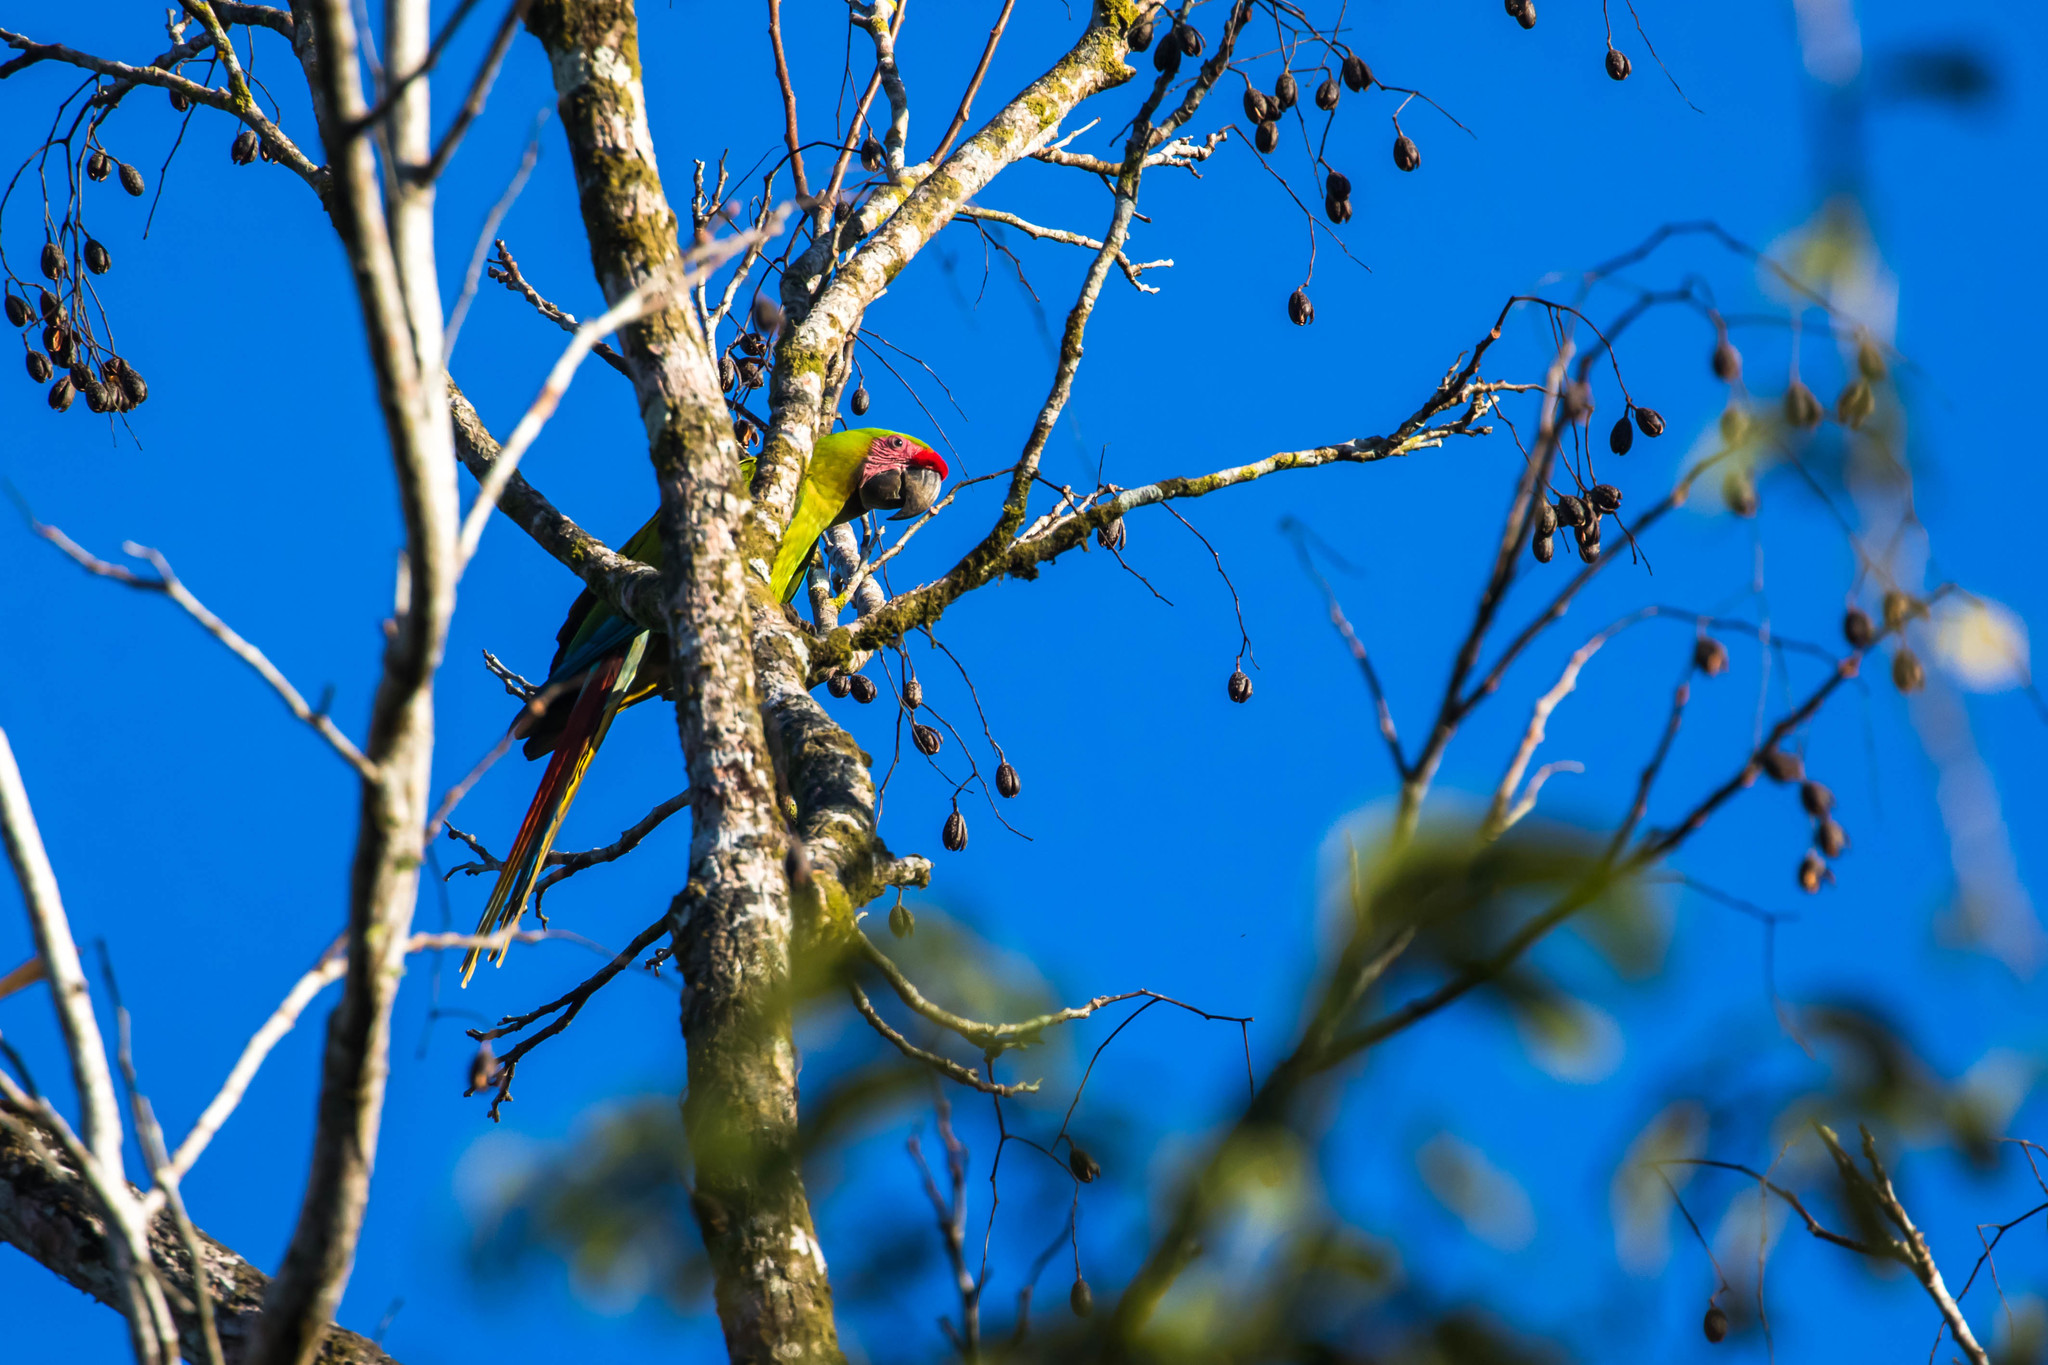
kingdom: Animalia
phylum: Chordata
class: Aves
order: Psittaciformes
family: Psittacidae
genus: Ara
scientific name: Ara ambiguus
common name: Great green macaw
